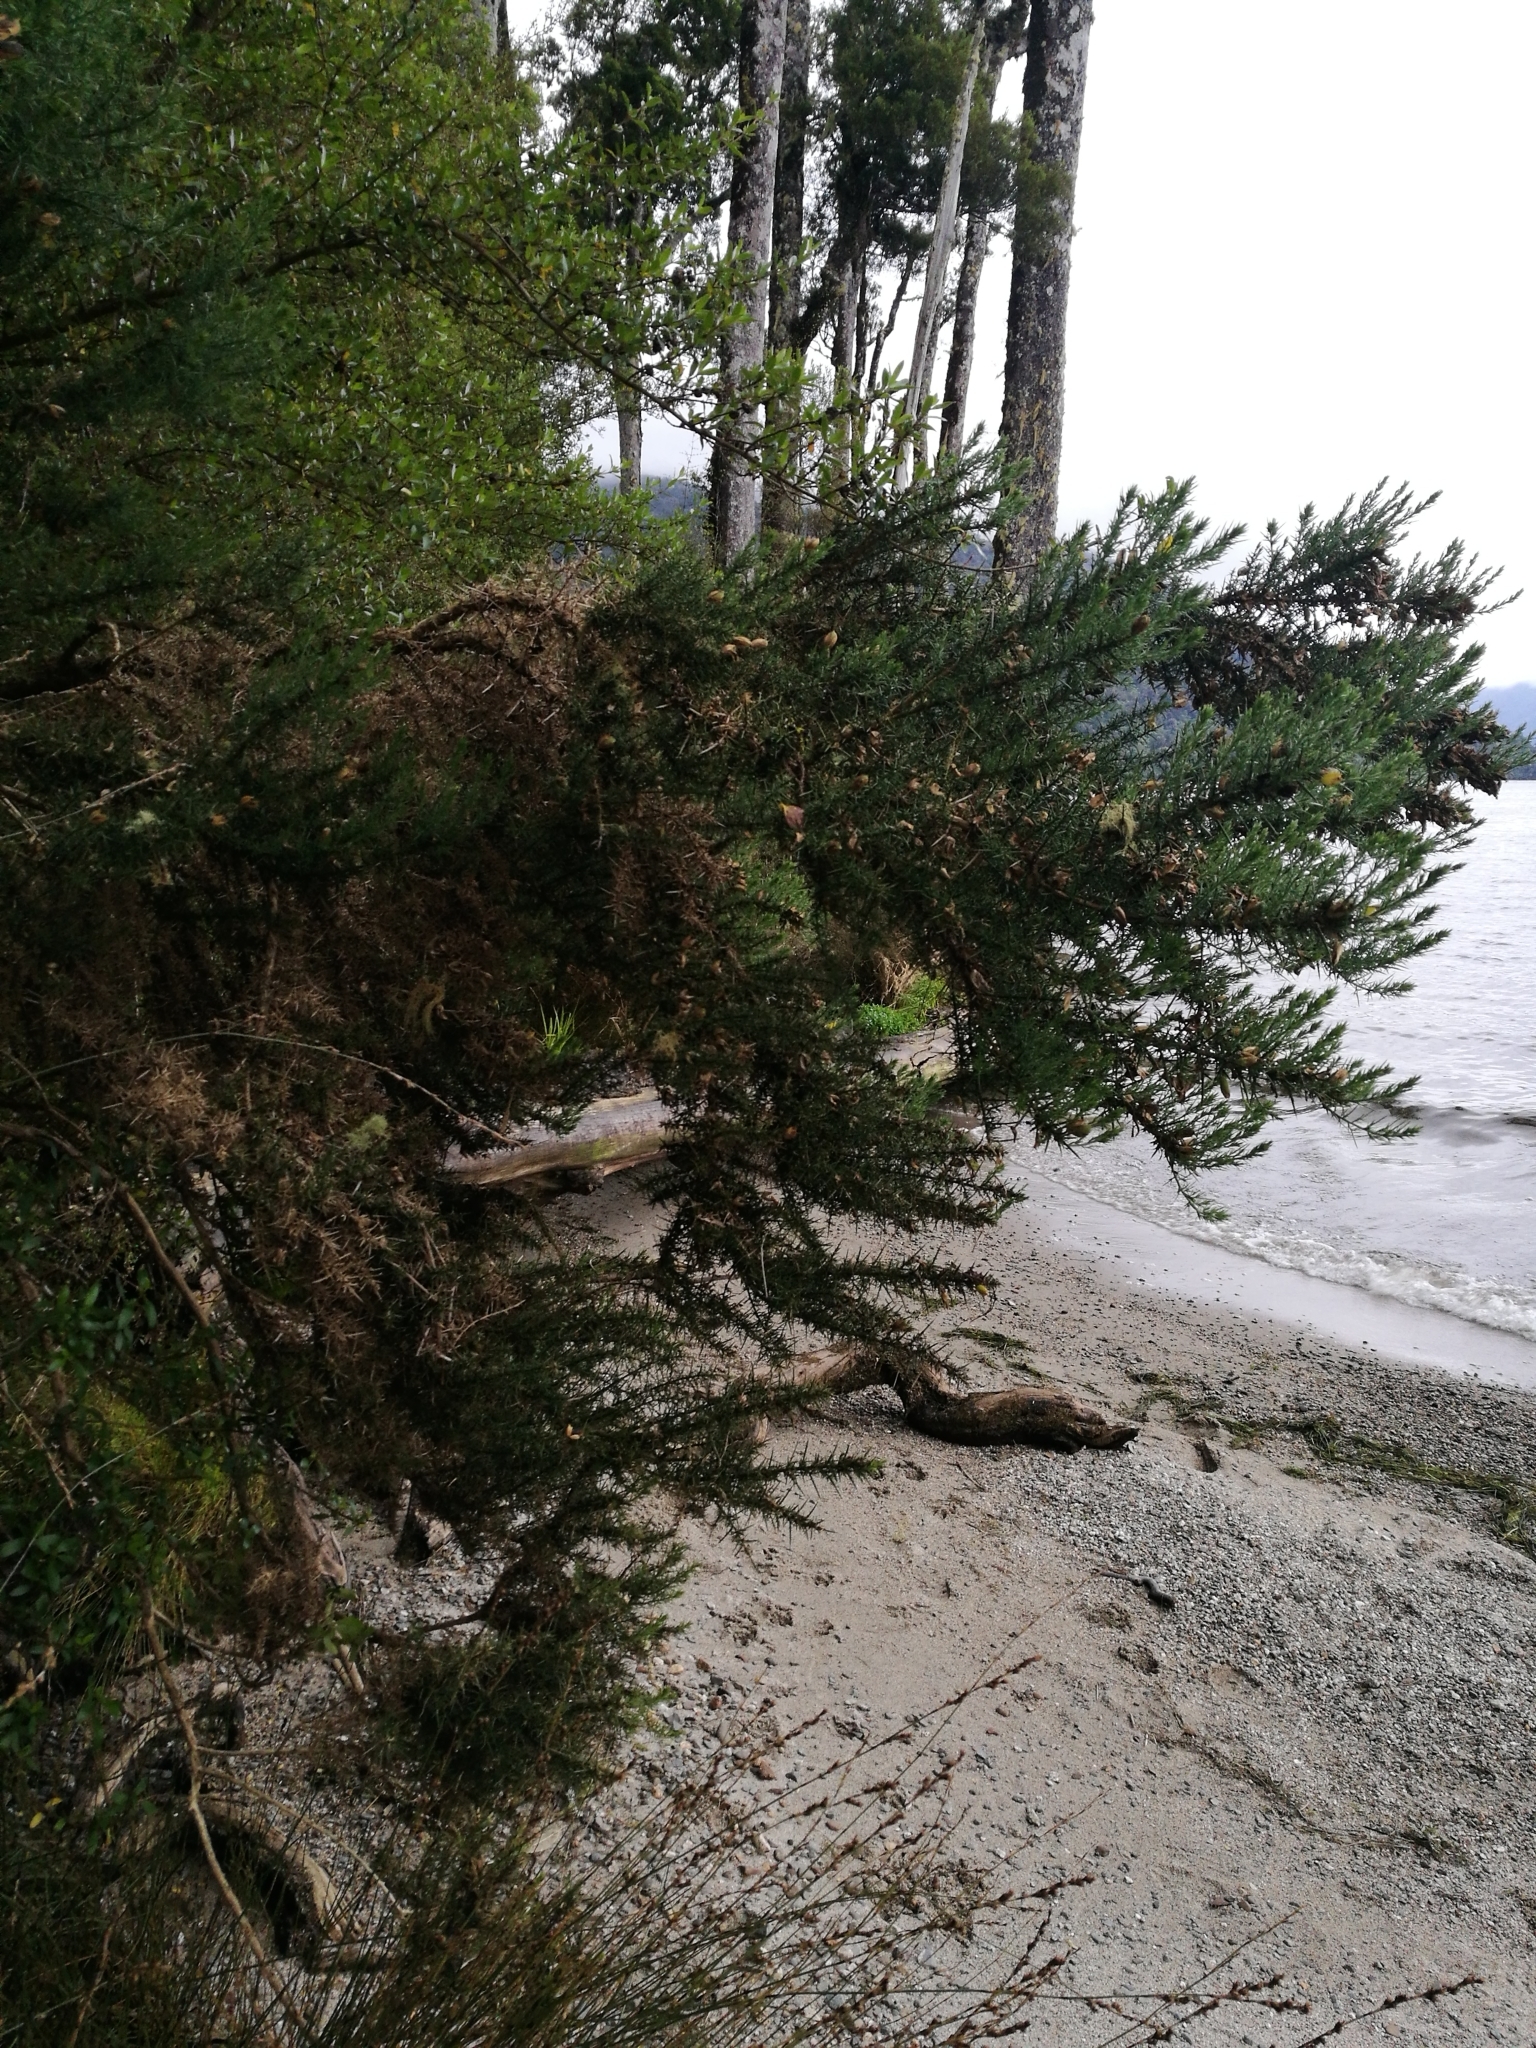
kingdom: Plantae
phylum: Tracheophyta
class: Magnoliopsida
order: Fabales
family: Fabaceae
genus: Ulex
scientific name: Ulex europaeus
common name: Common gorse
